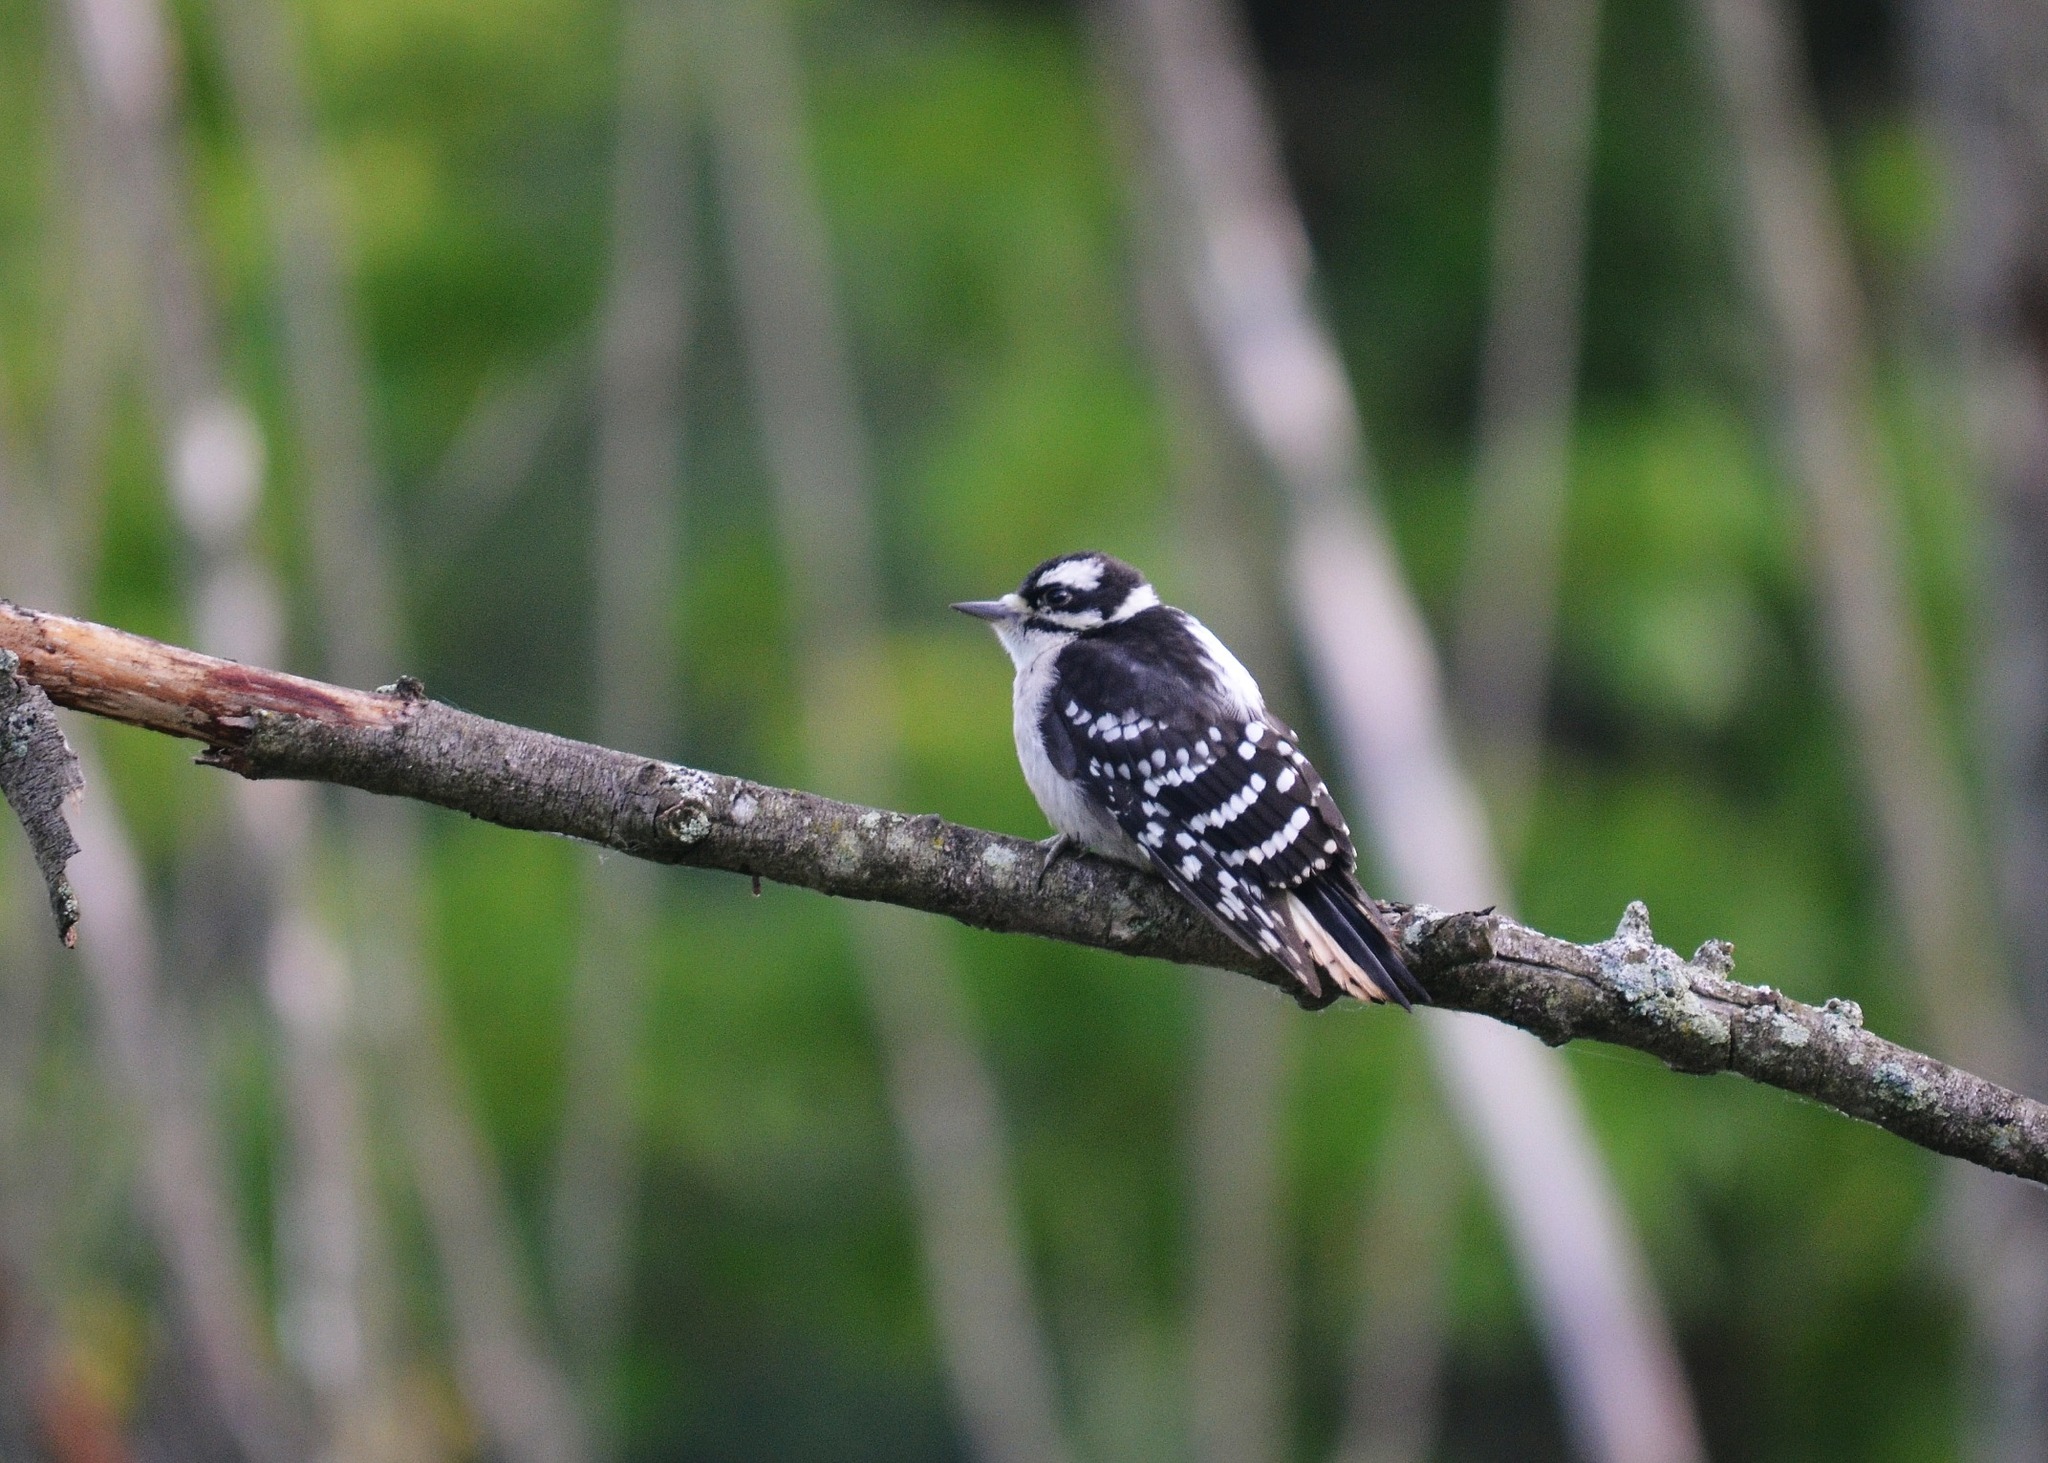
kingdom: Animalia
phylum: Chordata
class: Aves
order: Piciformes
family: Picidae
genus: Dryobates
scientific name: Dryobates pubescens
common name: Downy woodpecker
